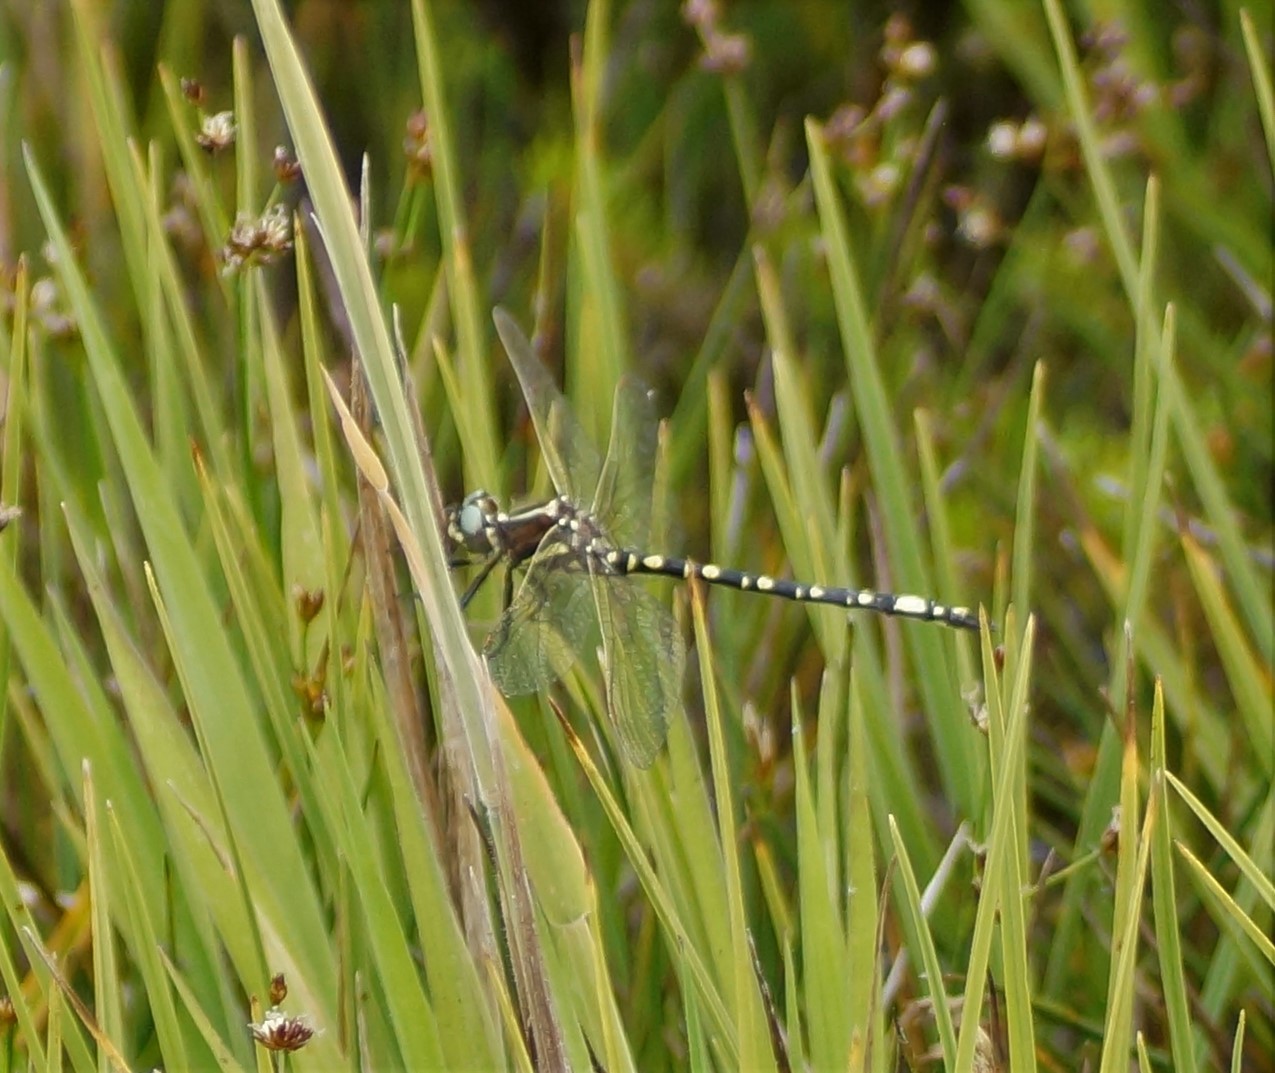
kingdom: Animalia
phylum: Arthropoda
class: Insecta
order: Odonata
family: Synthemistidae
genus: Synthemis
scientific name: Synthemis eustalacta
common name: Swamp tigertail
